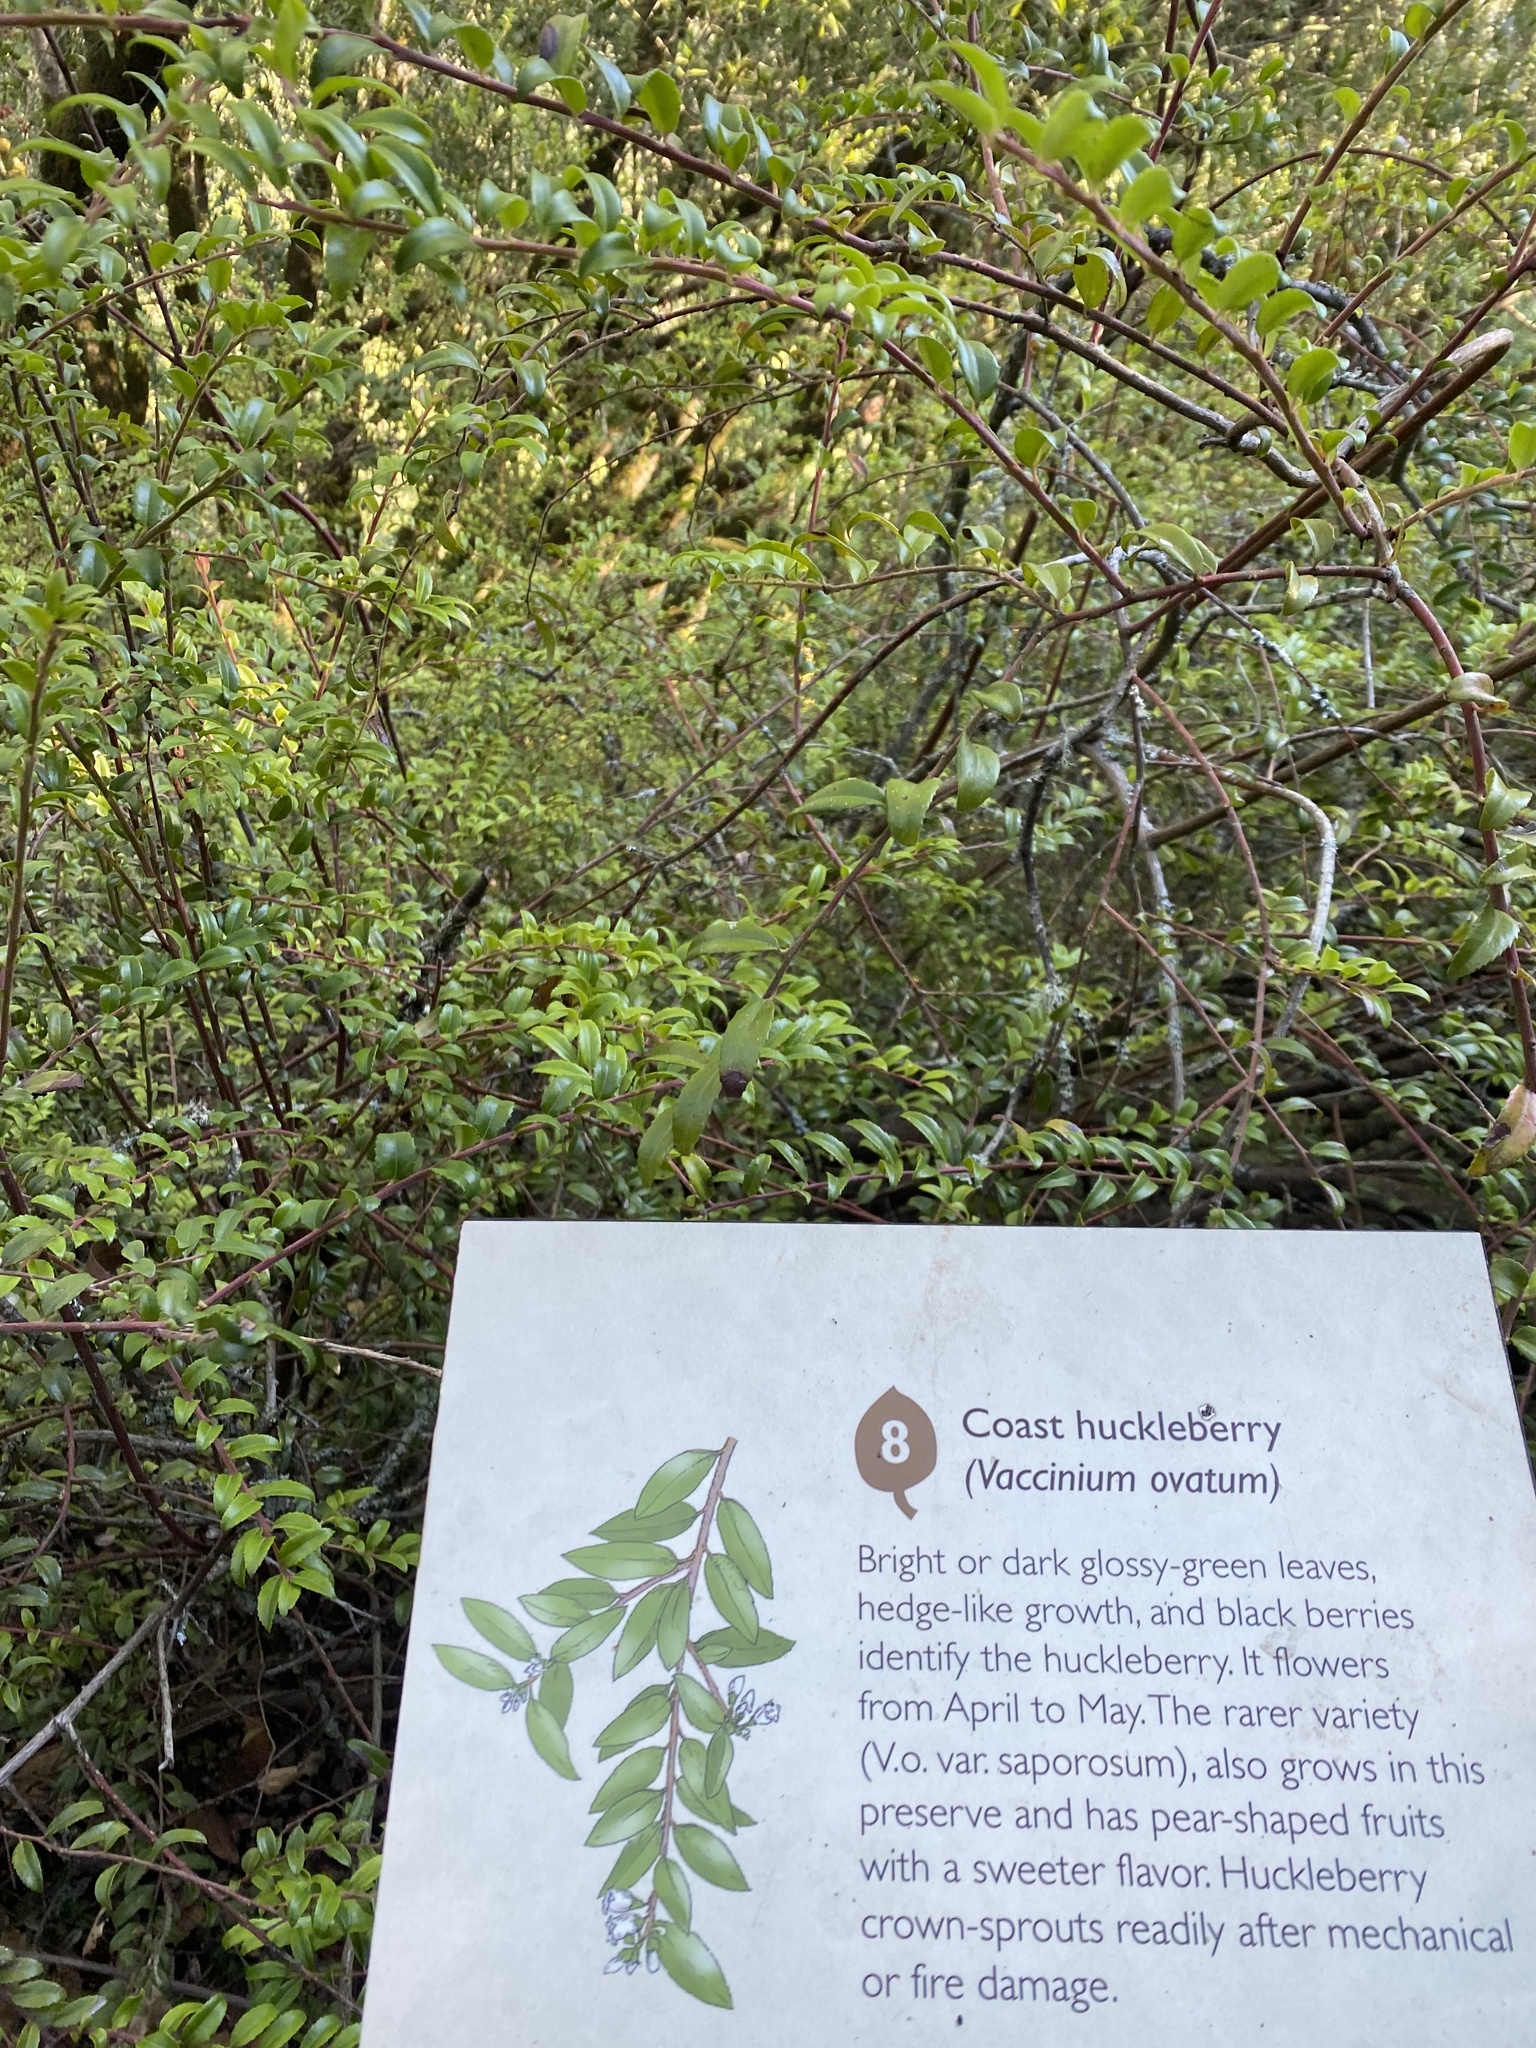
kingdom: Plantae
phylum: Tracheophyta
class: Magnoliopsida
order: Ericales
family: Ericaceae
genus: Vaccinium
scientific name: Vaccinium ovatum
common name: California-huckleberry
